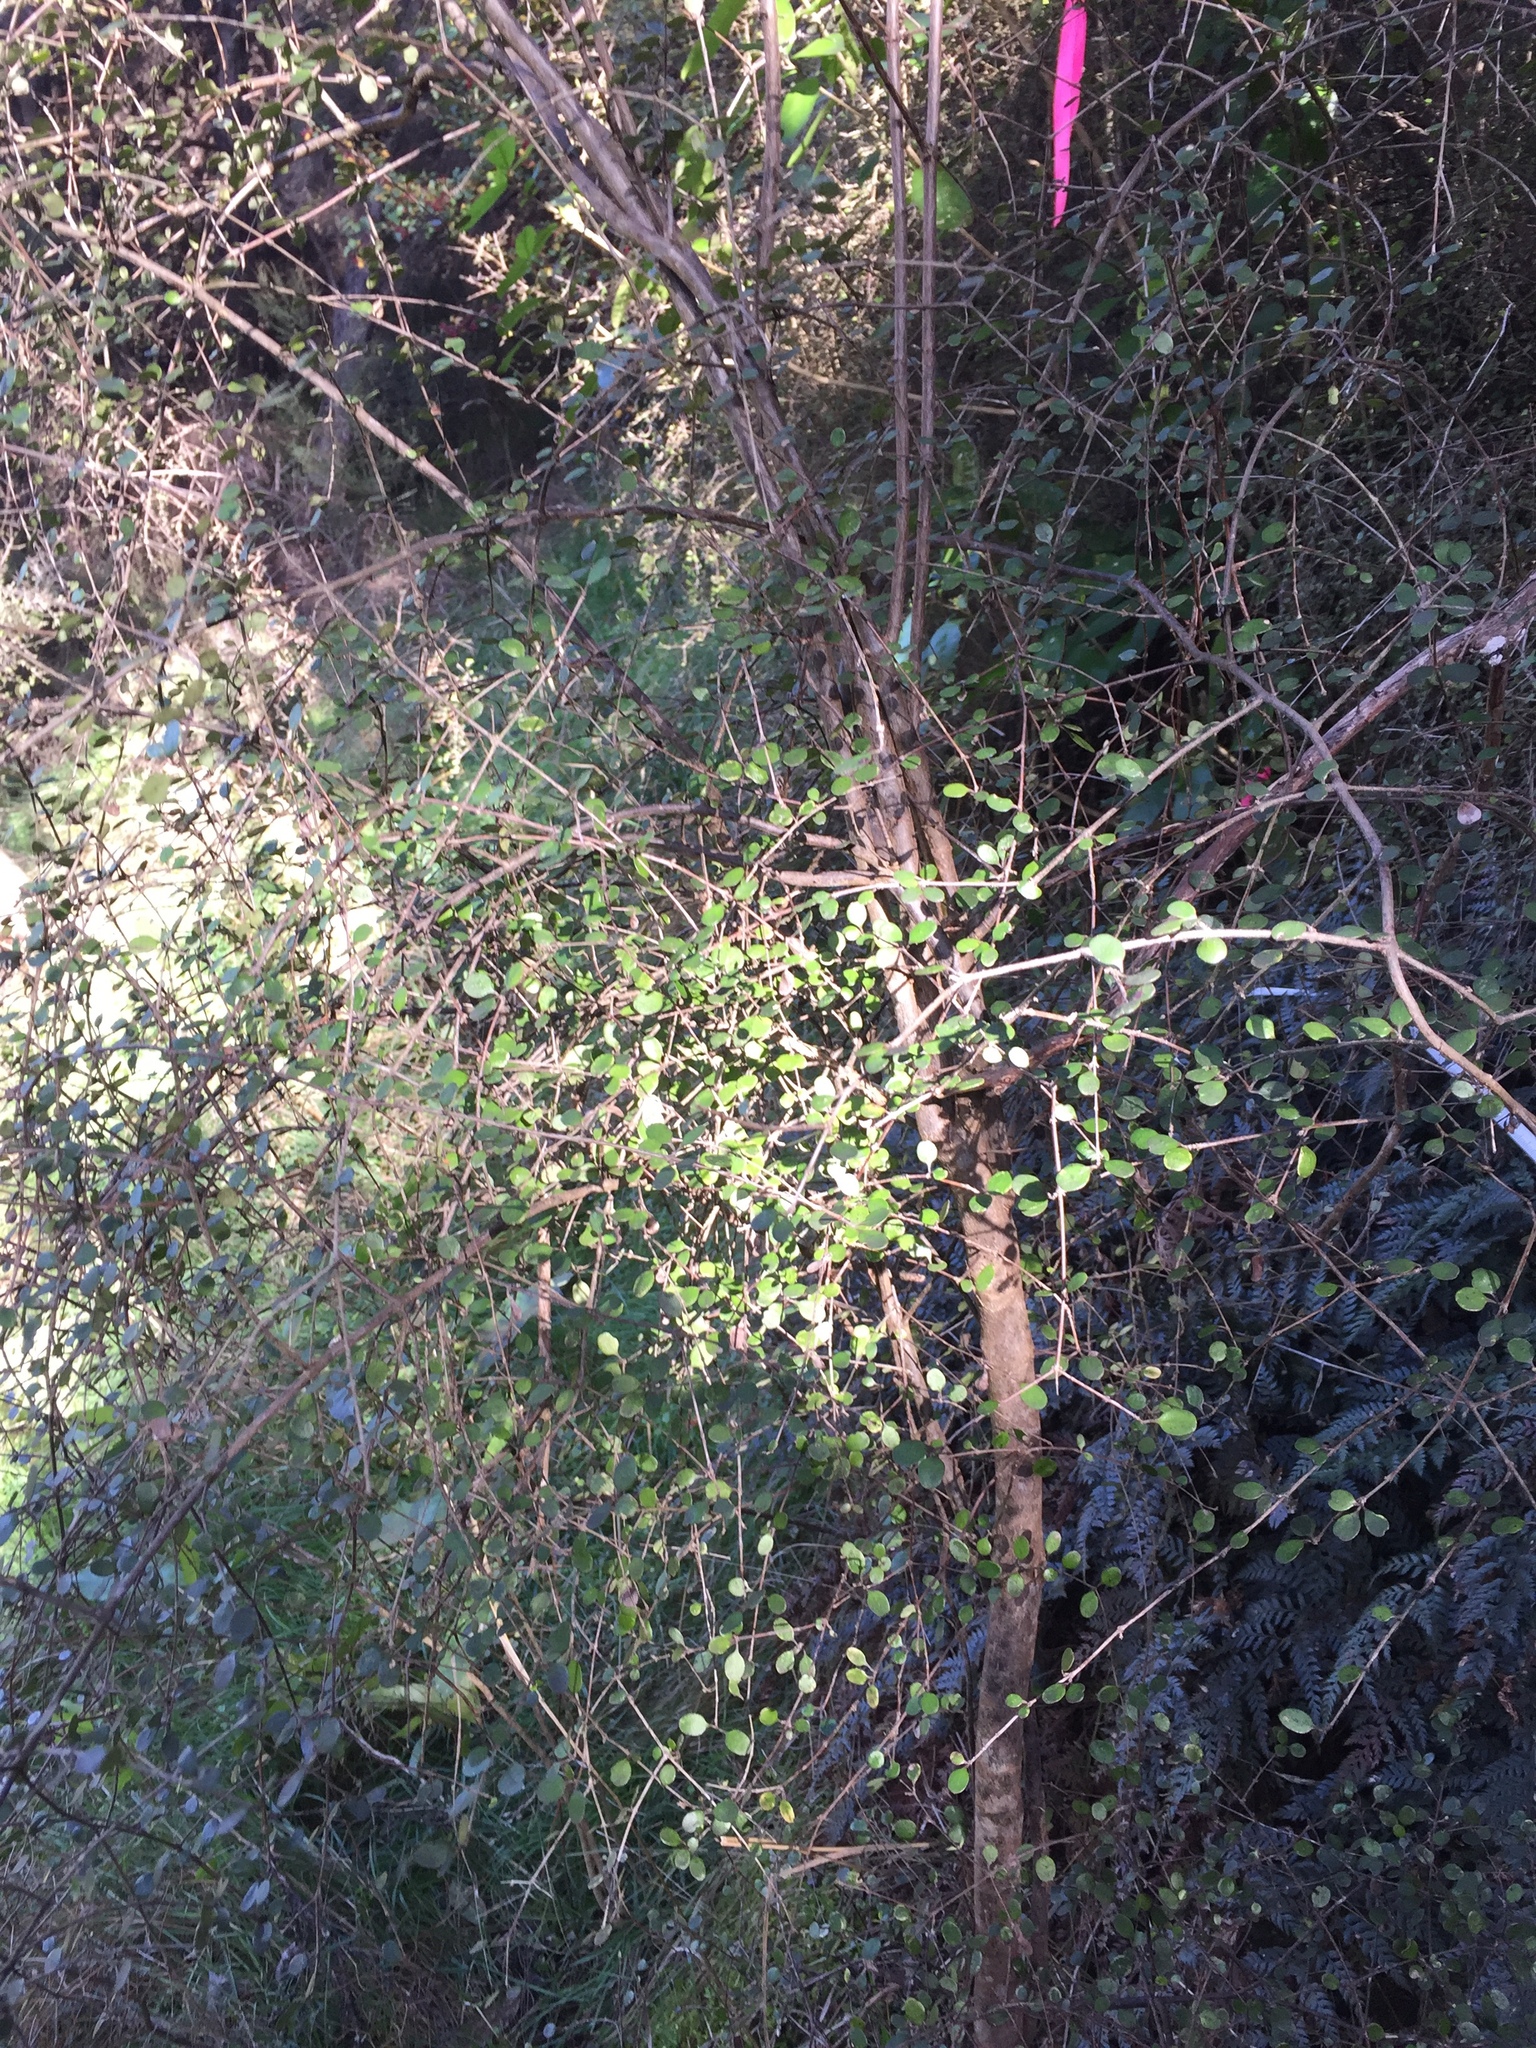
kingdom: Plantae
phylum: Tracheophyta
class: Magnoliopsida
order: Gentianales
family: Rubiaceae
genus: Coprosma
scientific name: Coprosma crassifolia
